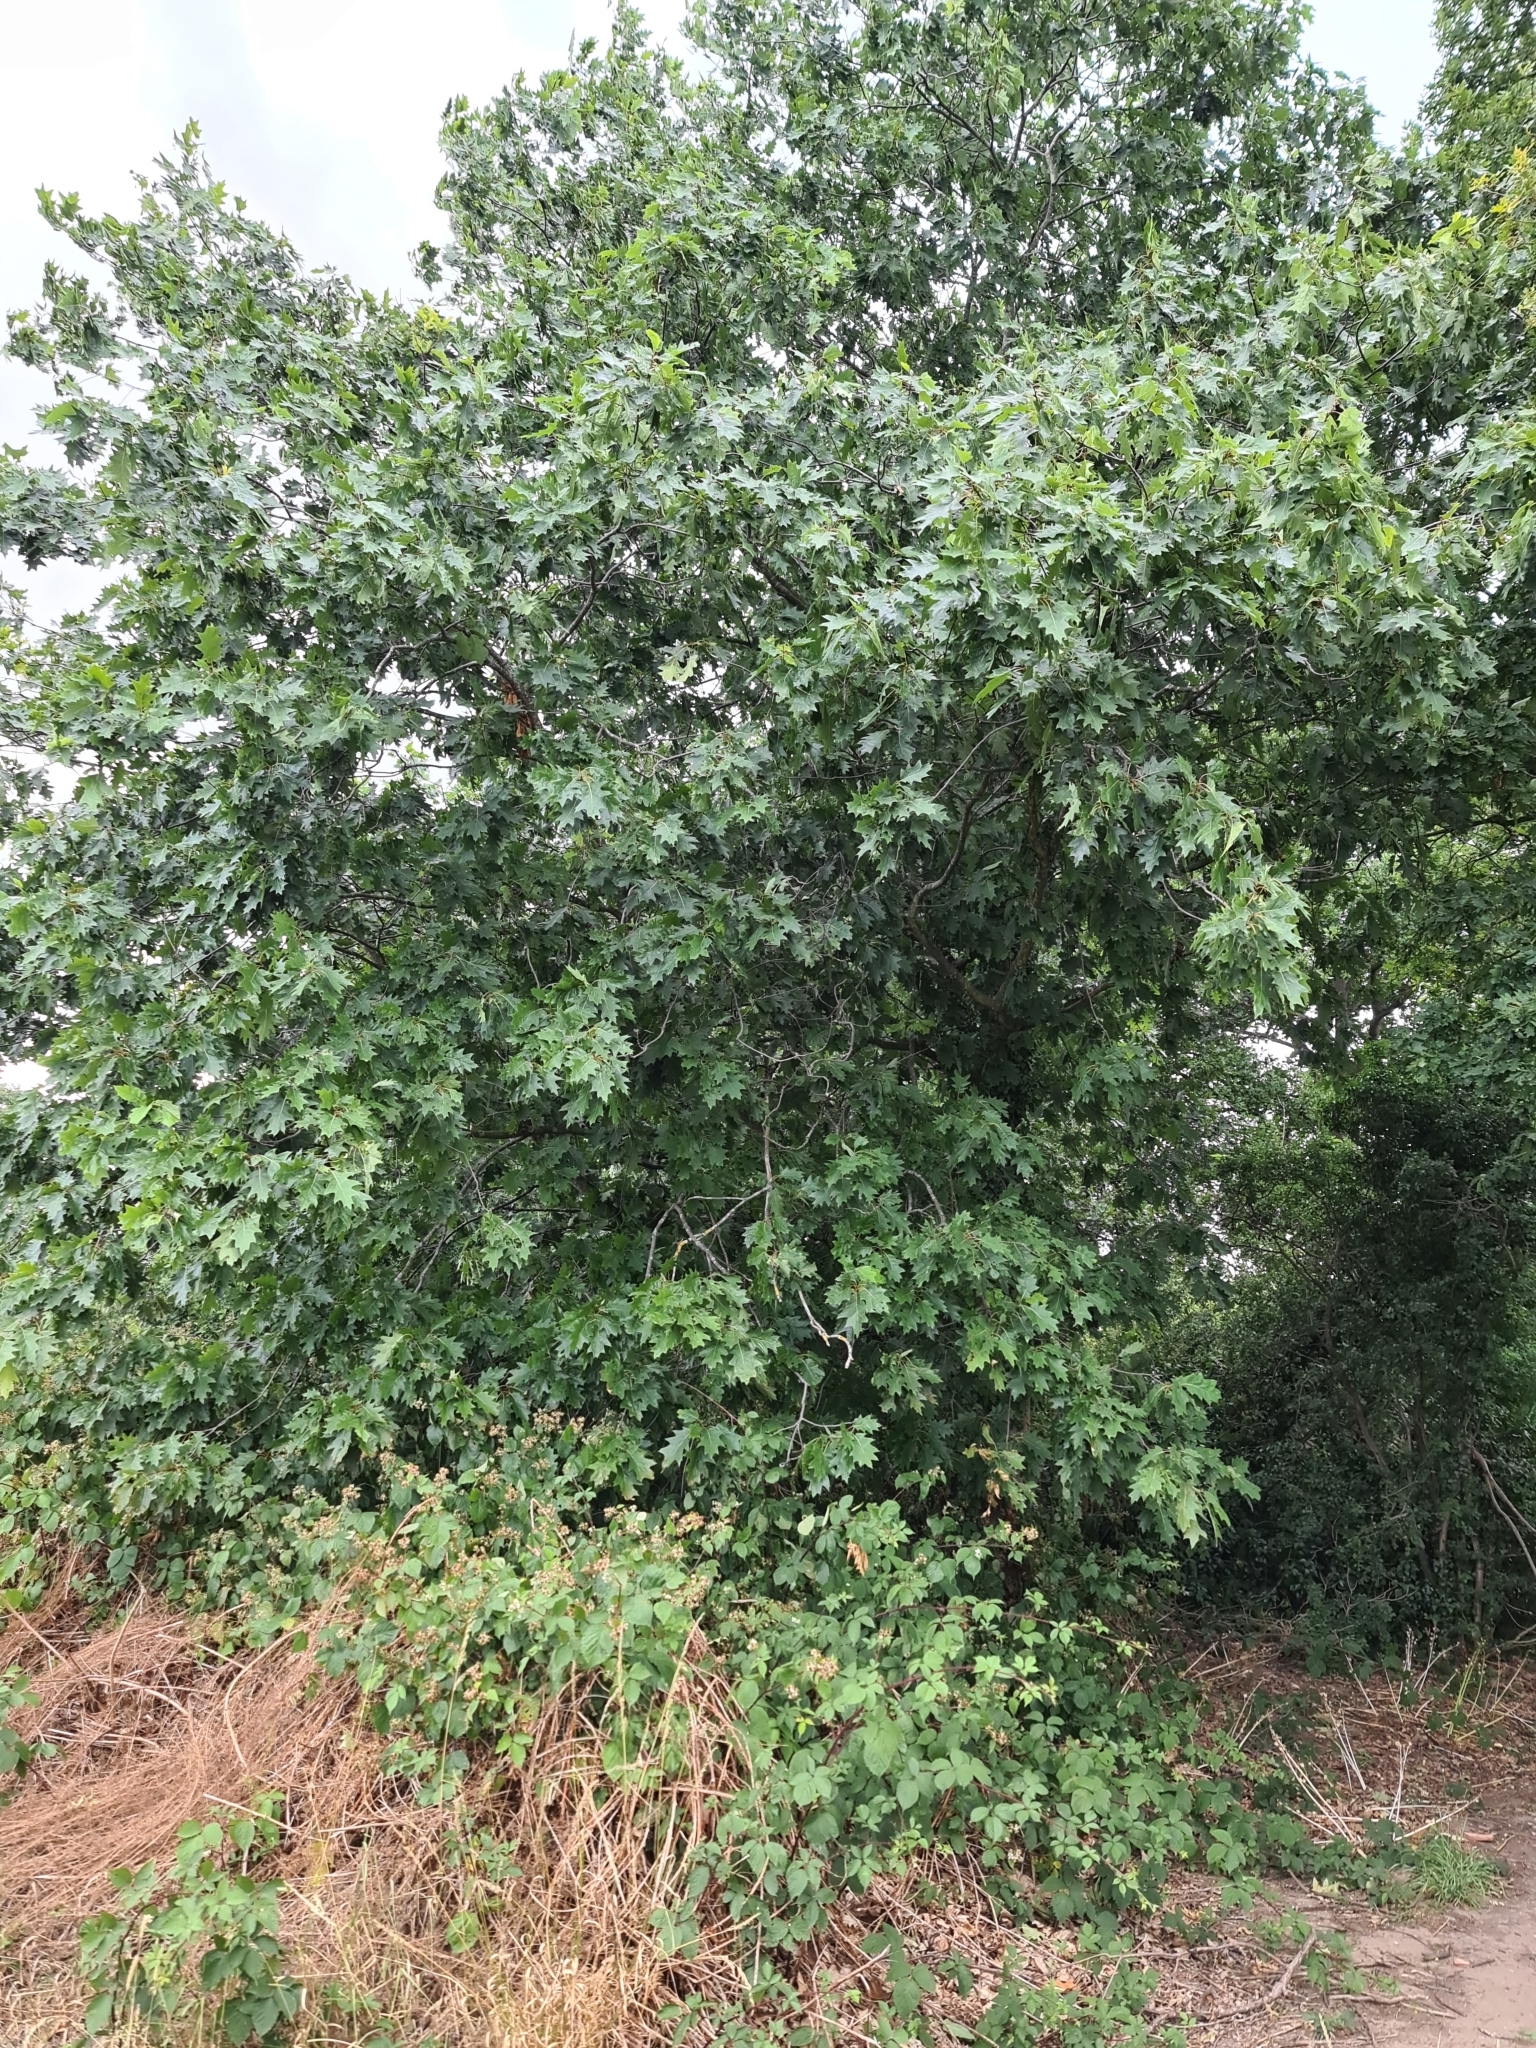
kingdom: Plantae
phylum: Tracheophyta
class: Magnoliopsida
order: Fagales
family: Fagaceae
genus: Quercus
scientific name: Quercus rubra
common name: Red oak
